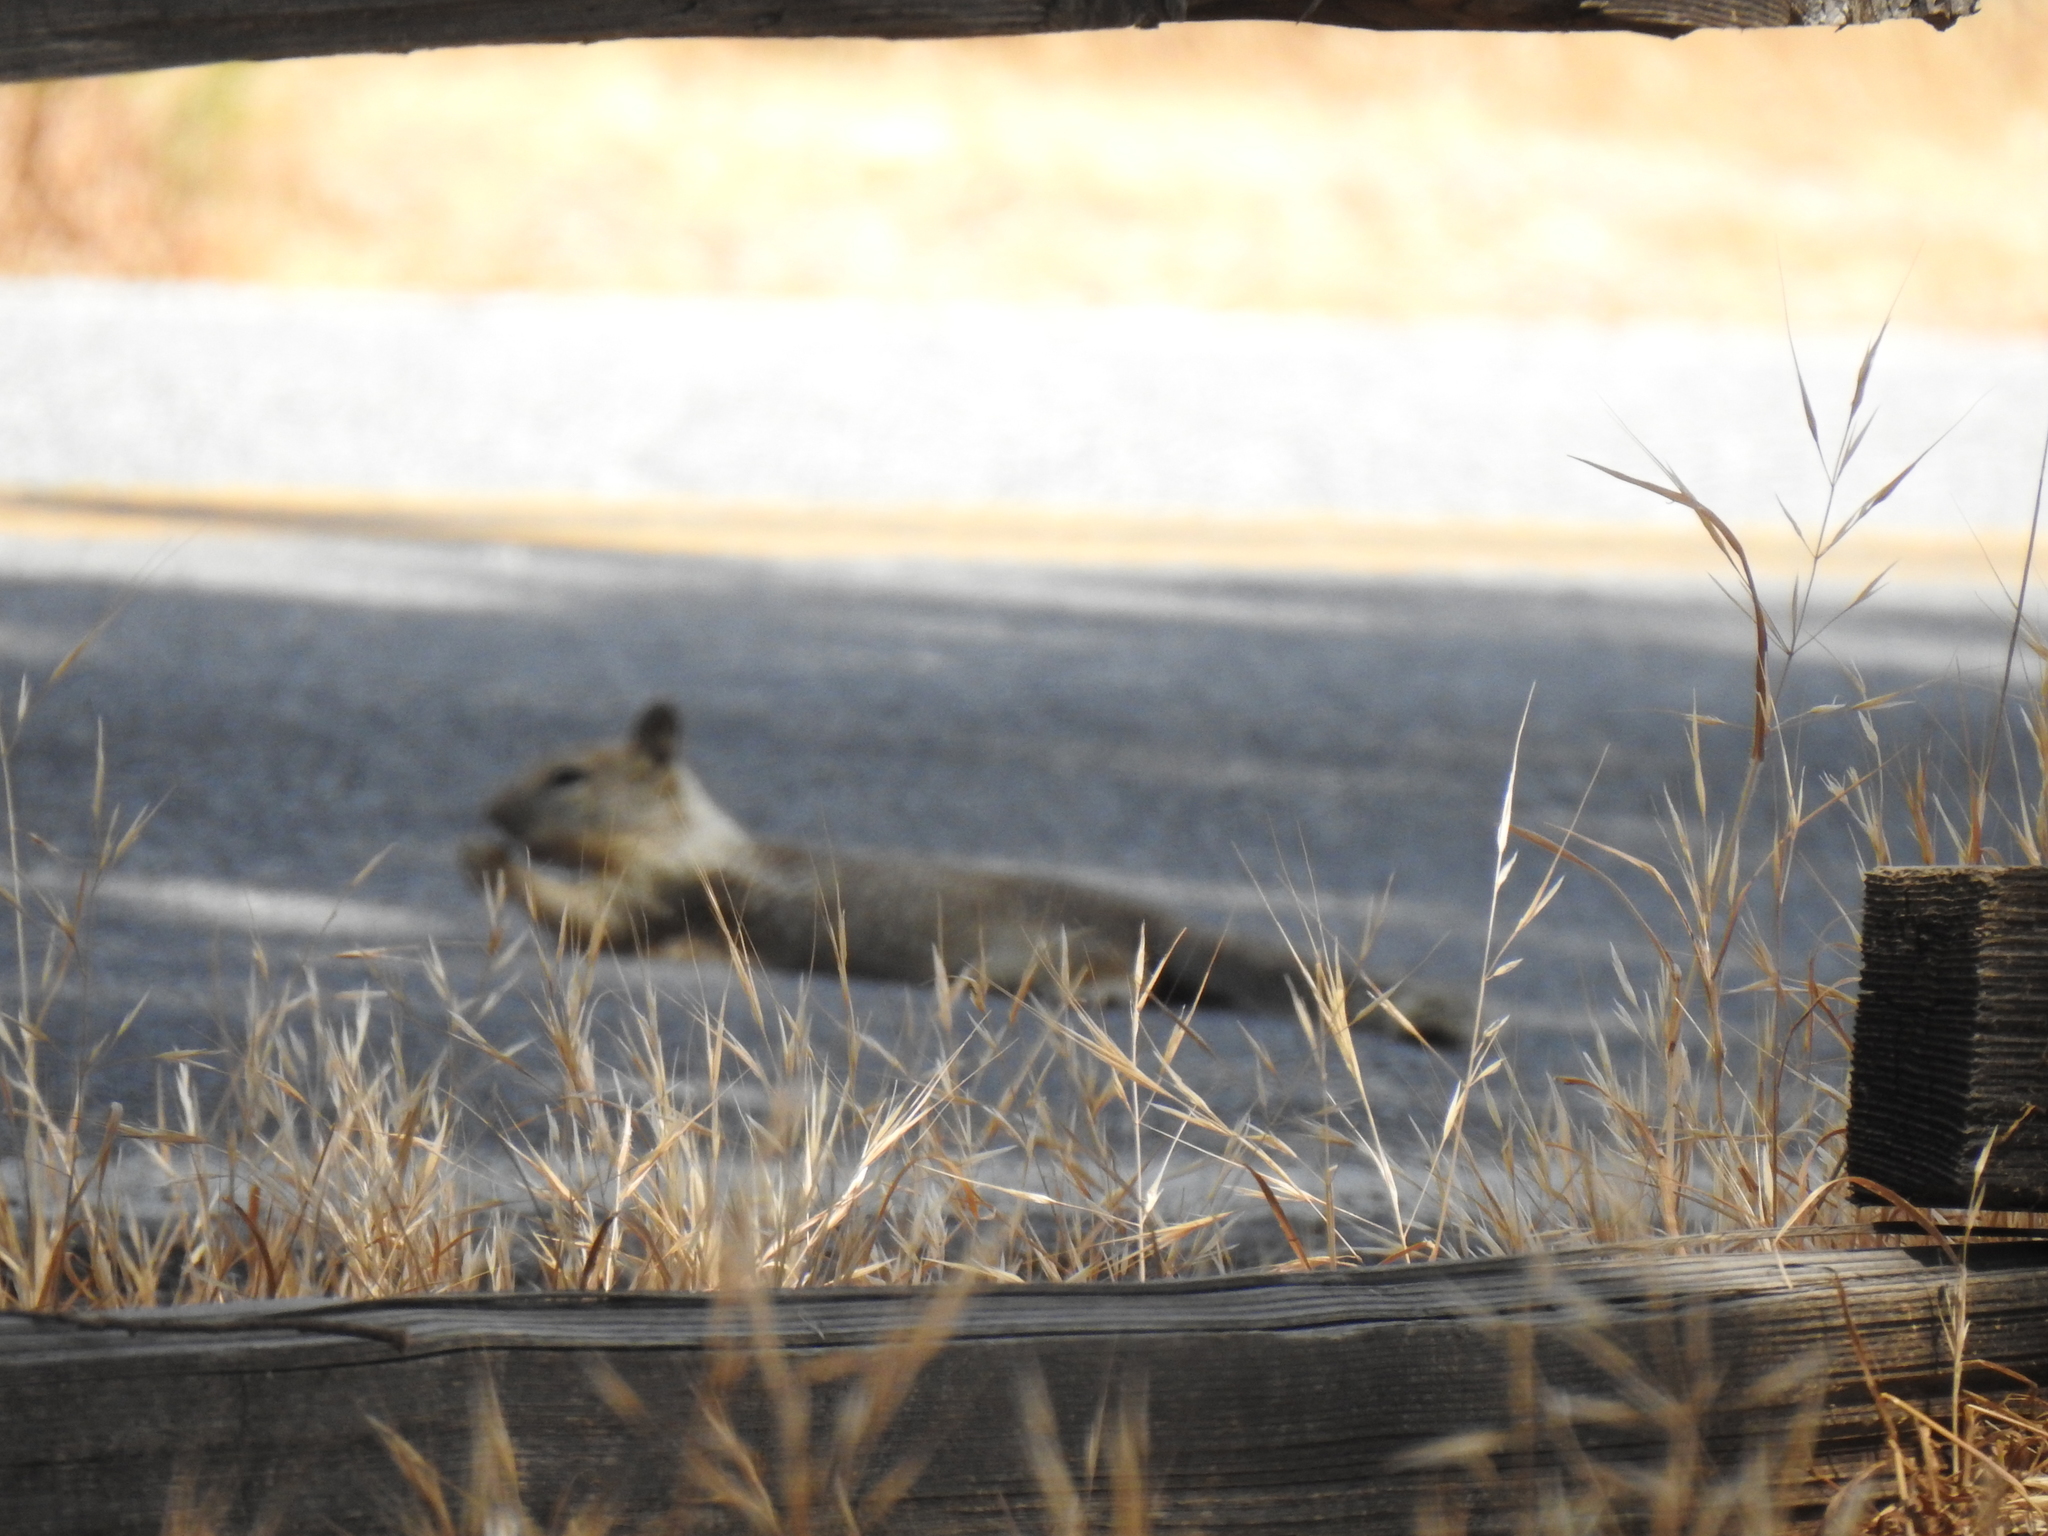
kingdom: Animalia
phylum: Chordata
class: Mammalia
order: Rodentia
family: Sciuridae
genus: Otospermophilus
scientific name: Otospermophilus beecheyi
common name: California ground squirrel
